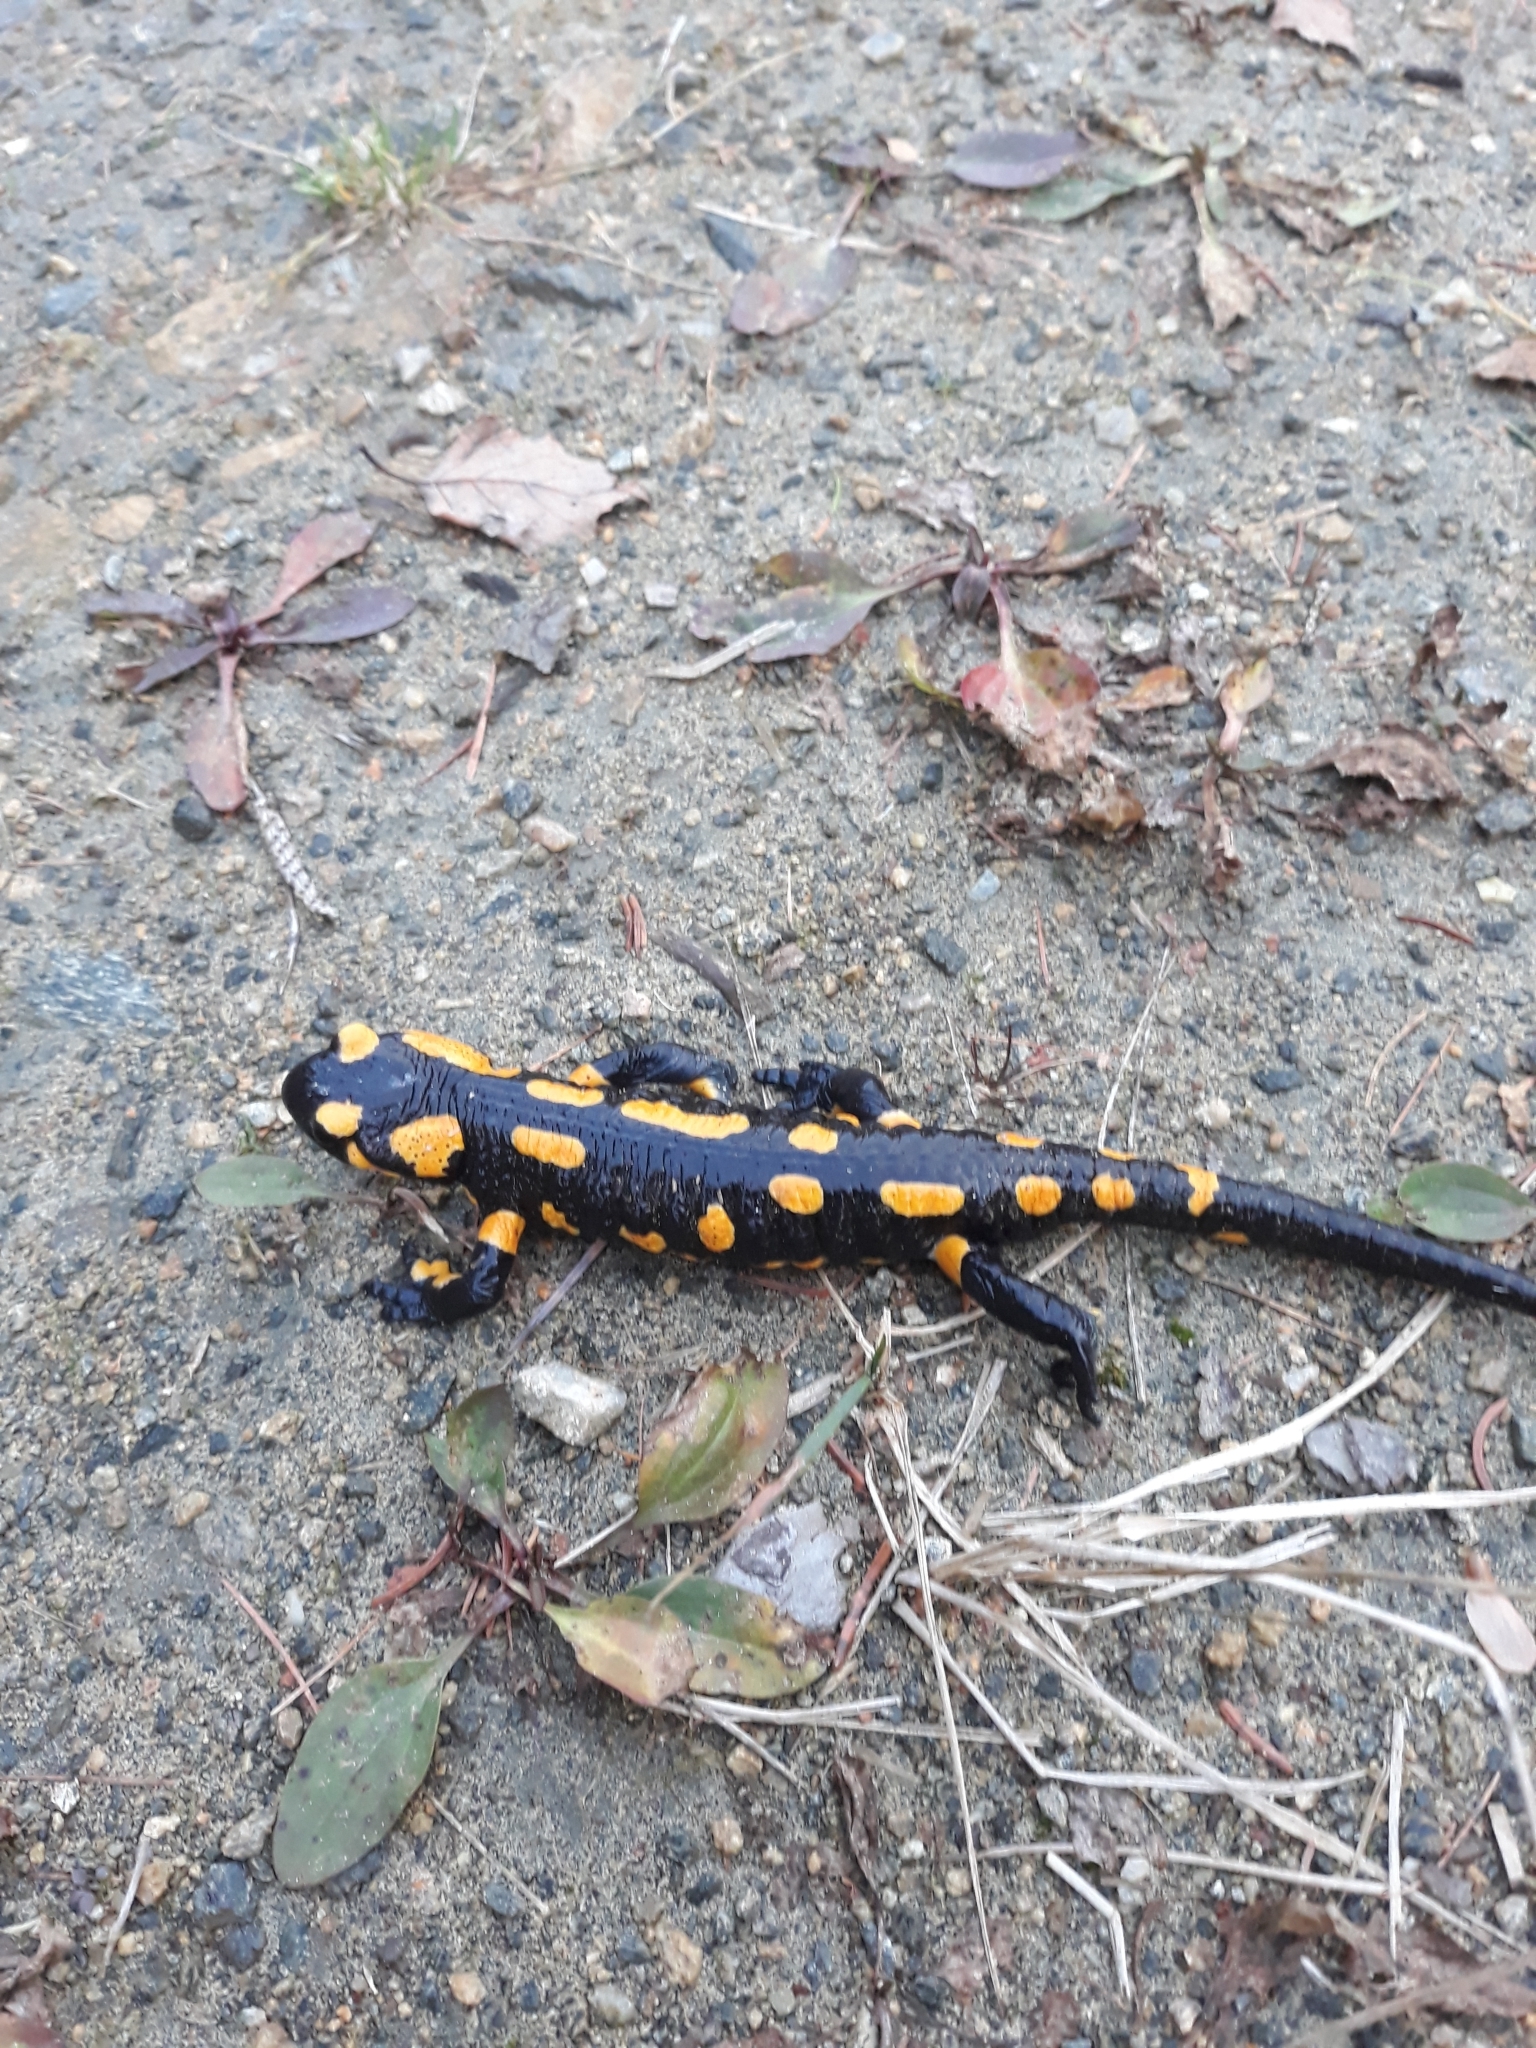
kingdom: Animalia
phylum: Chordata
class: Amphibia
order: Caudata
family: Salamandridae
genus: Salamandra
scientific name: Salamandra salamandra
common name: Fire salamander
